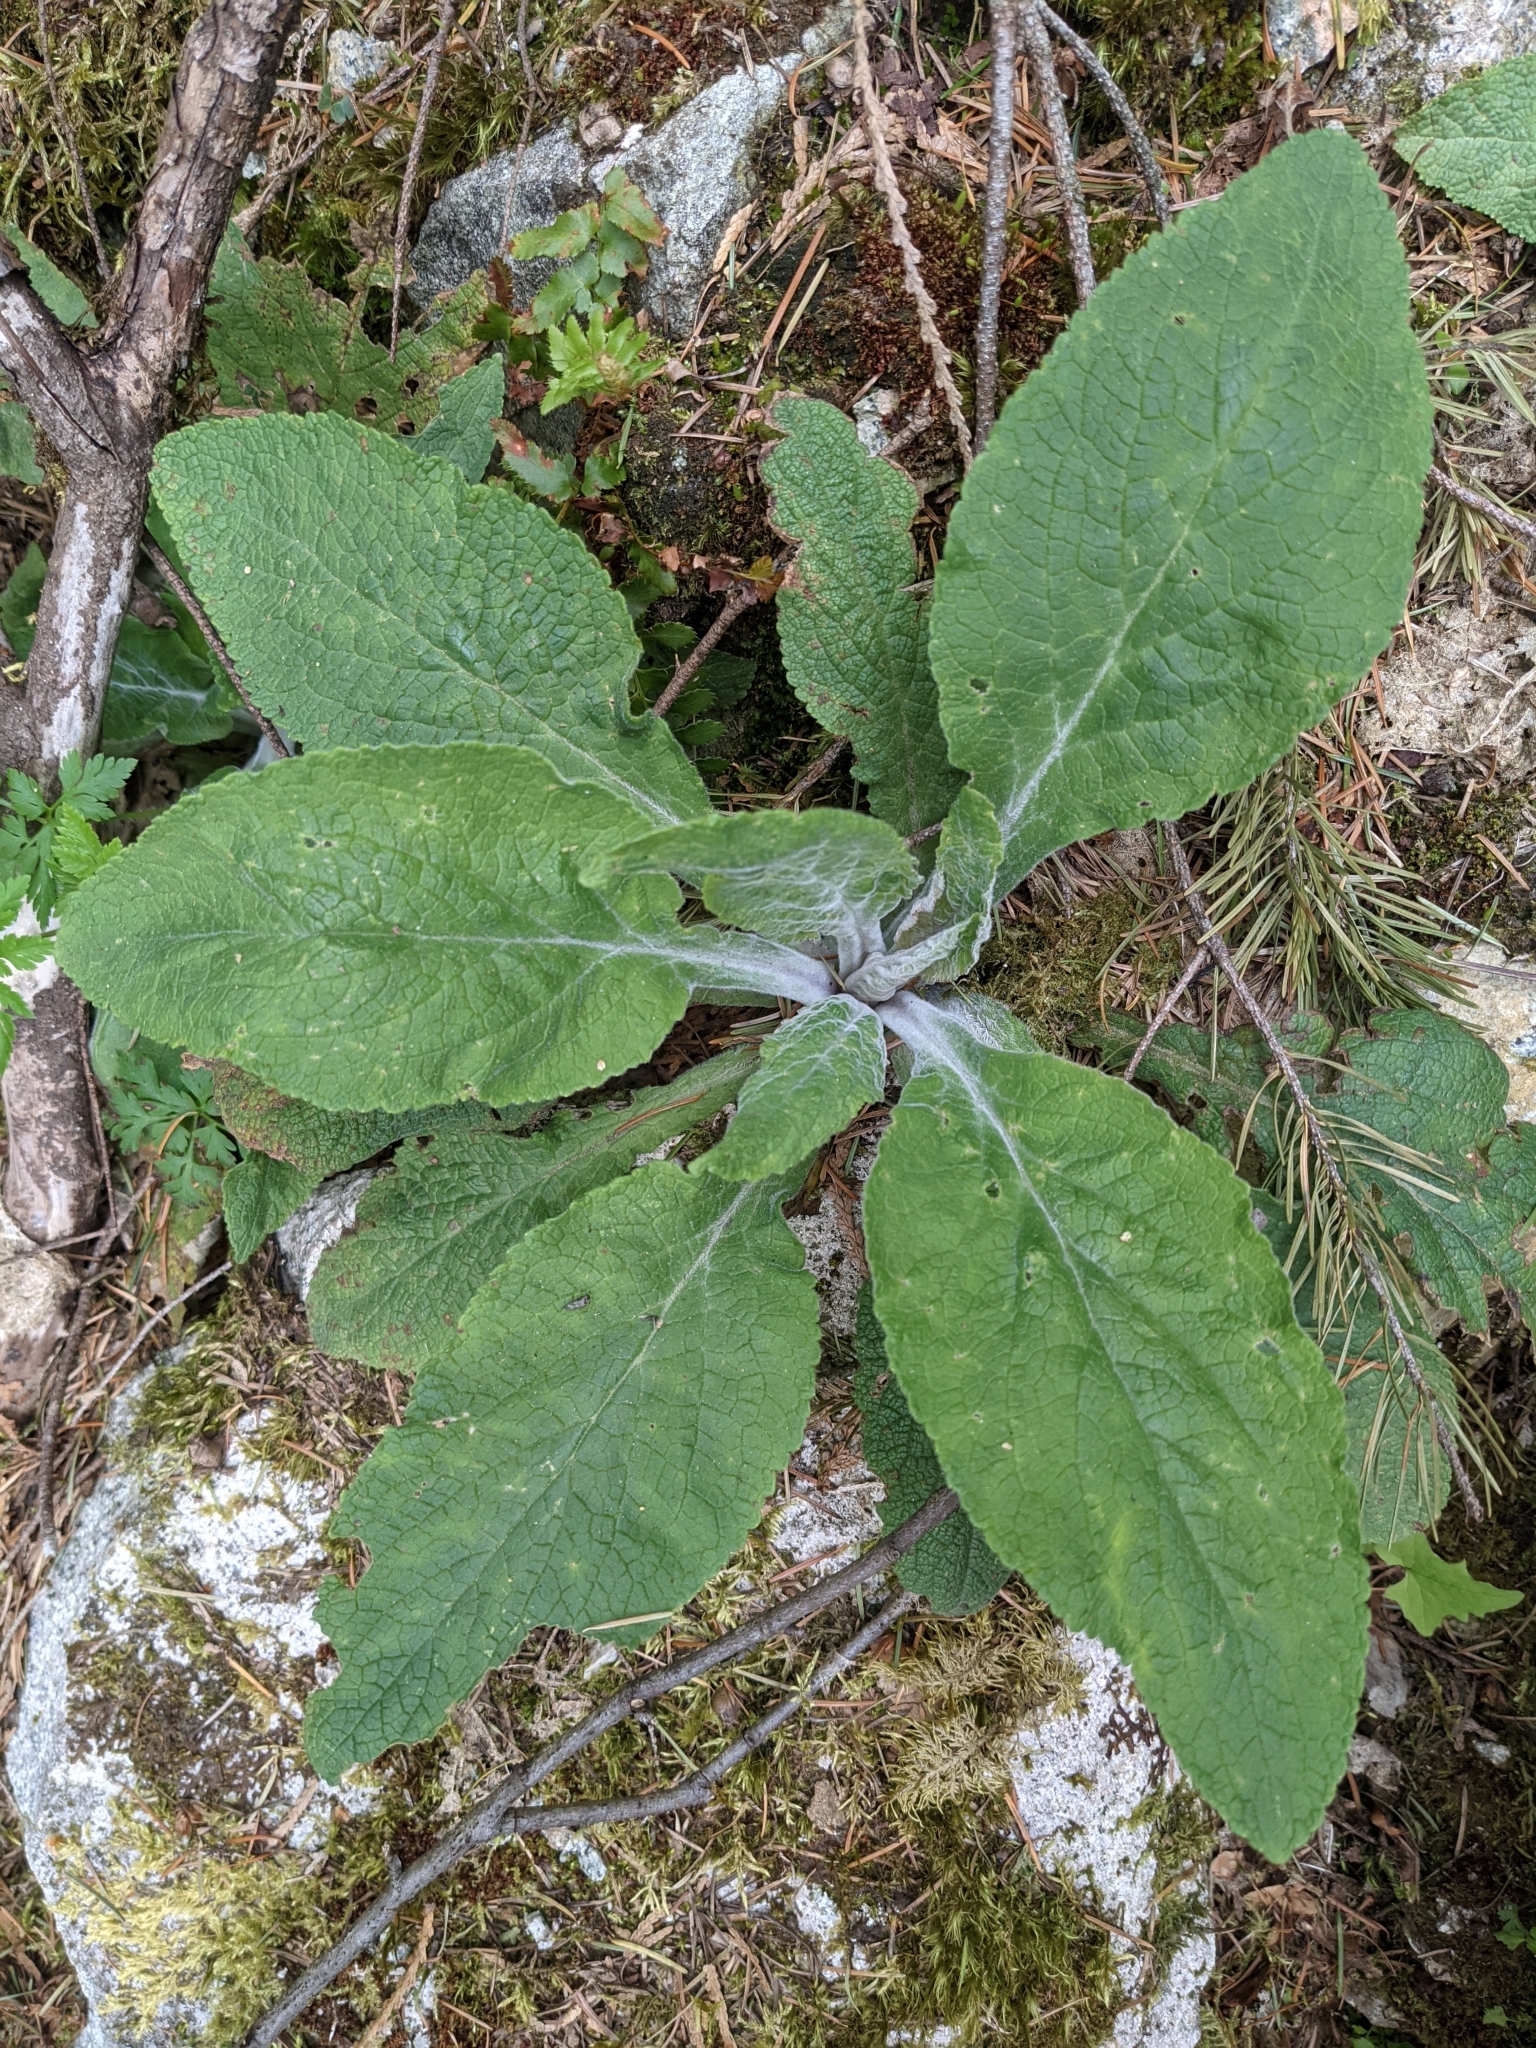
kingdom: Plantae
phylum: Tracheophyta
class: Magnoliopsida
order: Lamiales
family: Plantaginaceae
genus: Digitalis
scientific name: Digitalis purpurea
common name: Foxglove
